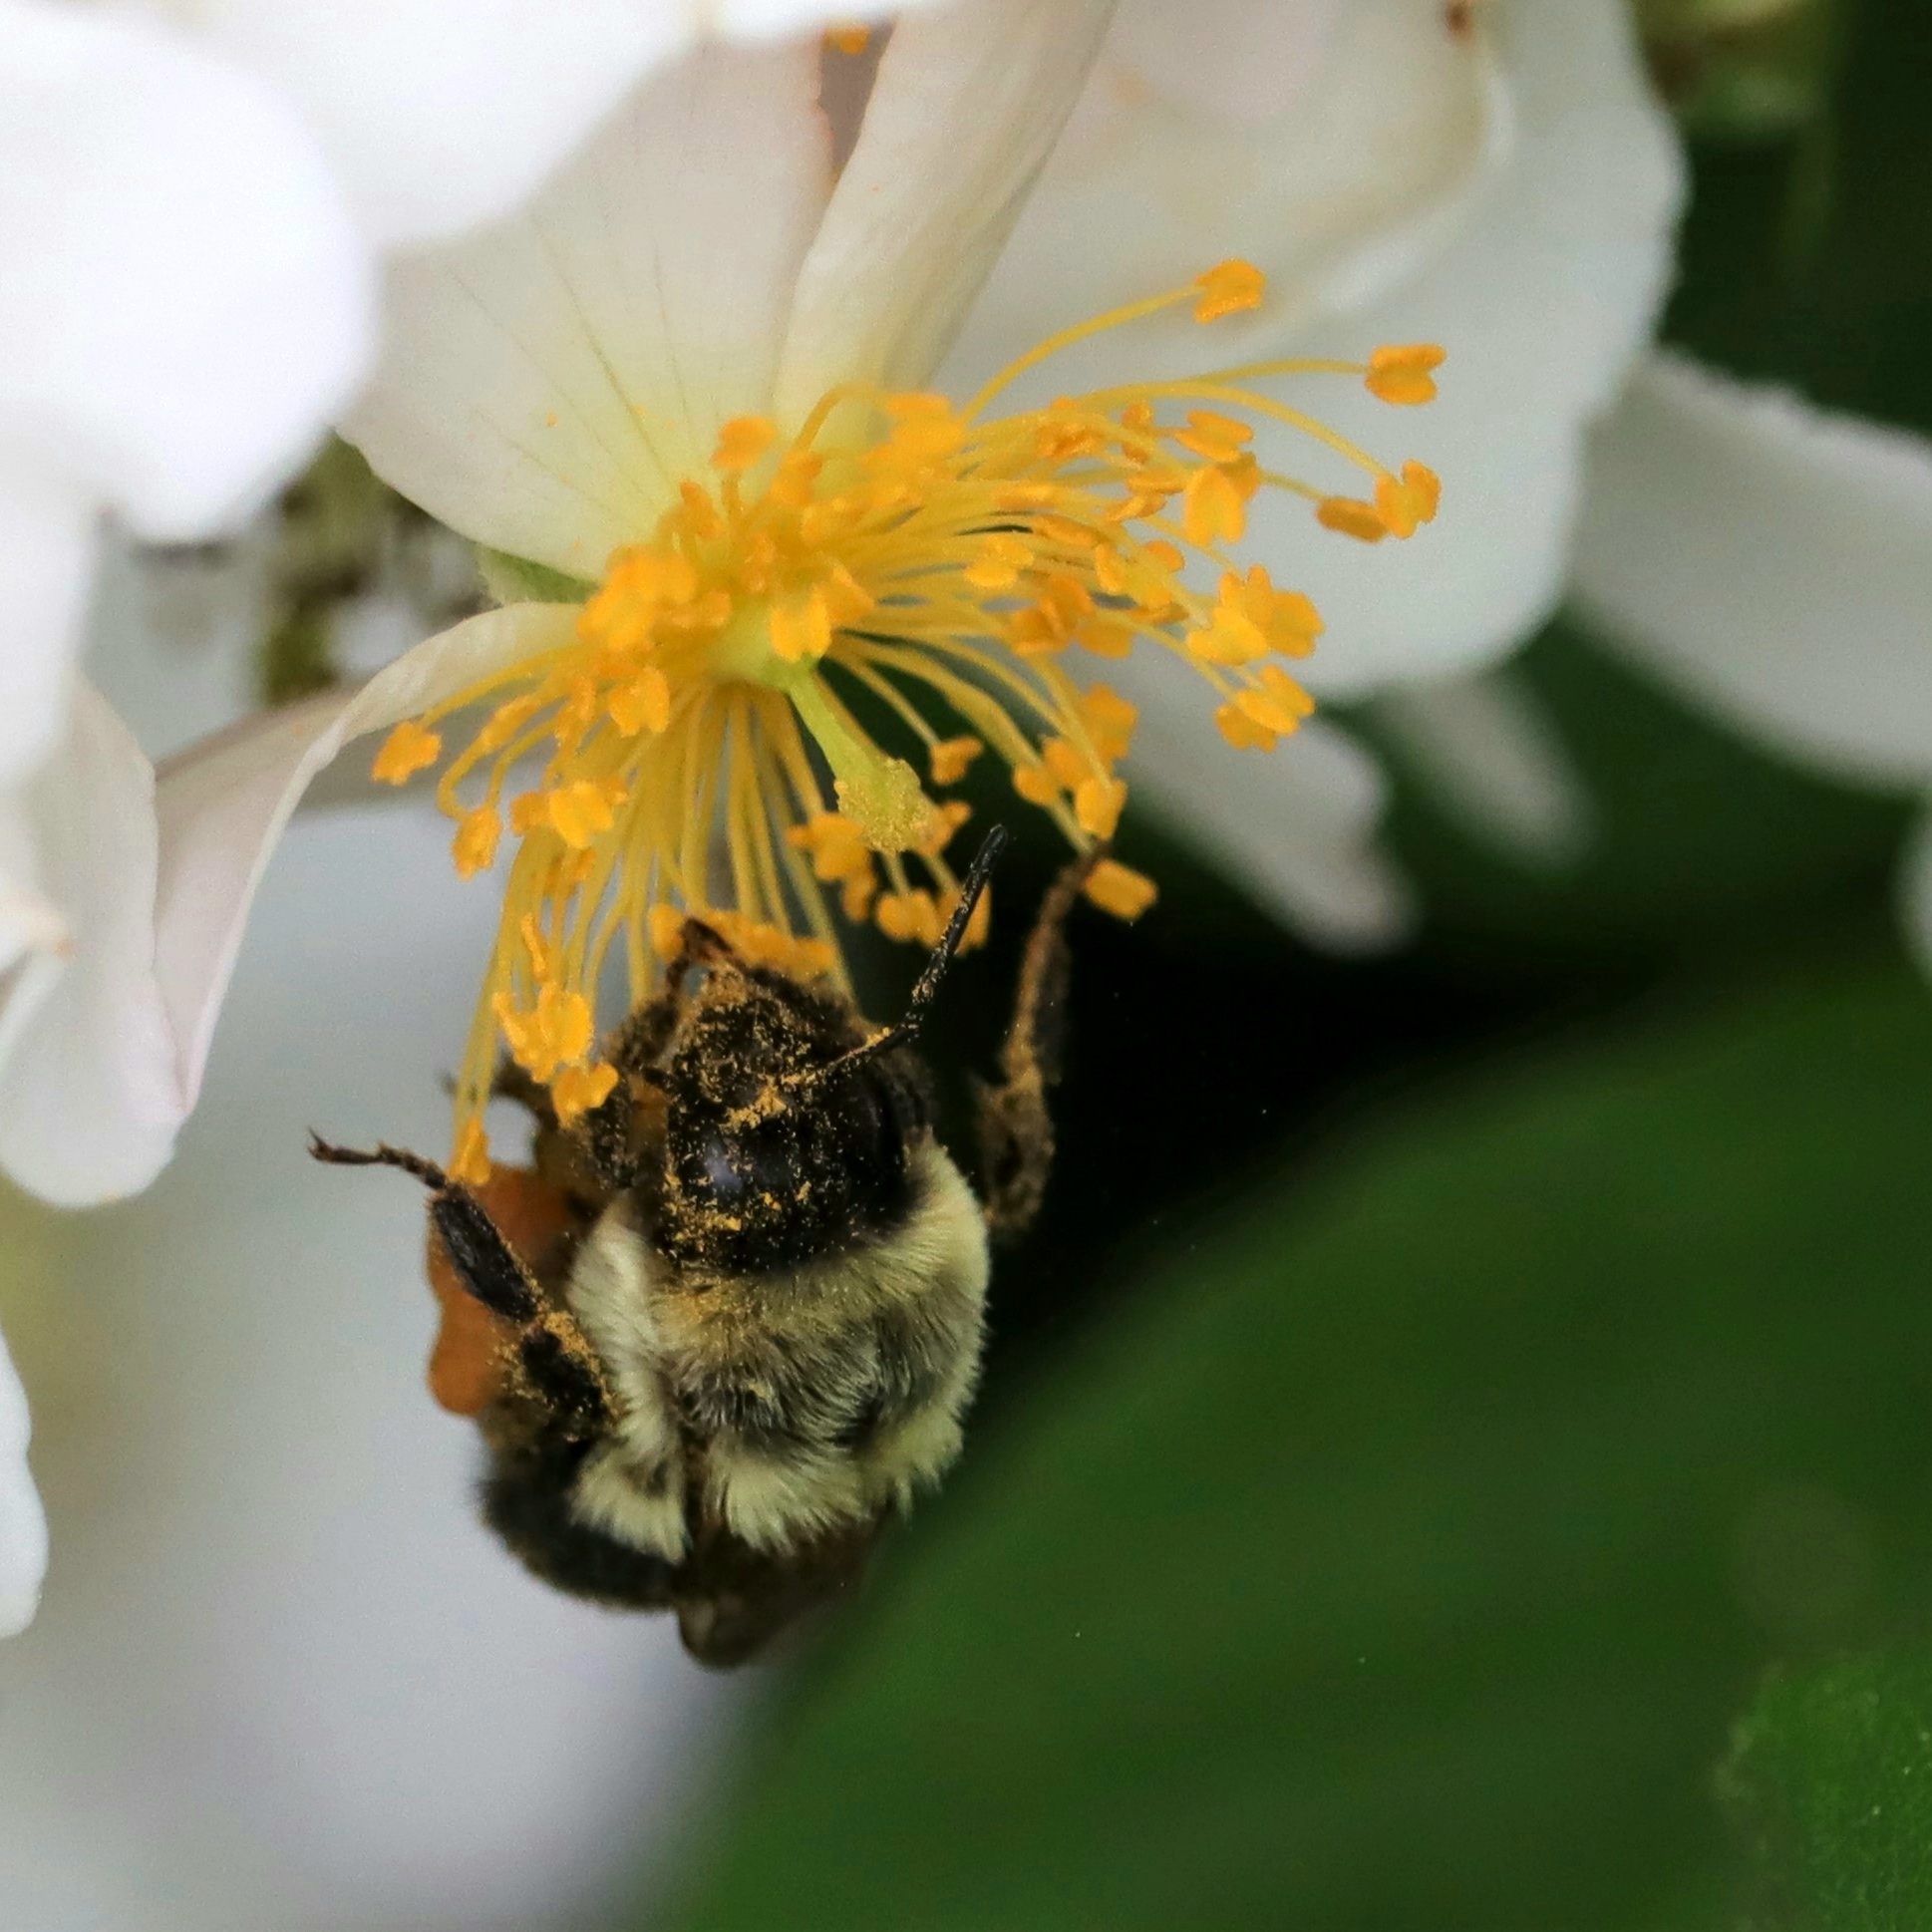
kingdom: Animalia
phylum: Arthropoda
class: Insecta
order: Hymenoptera
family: Apidae
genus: Bombus
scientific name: Bombus impatiens
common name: Common eastern bumble bee
